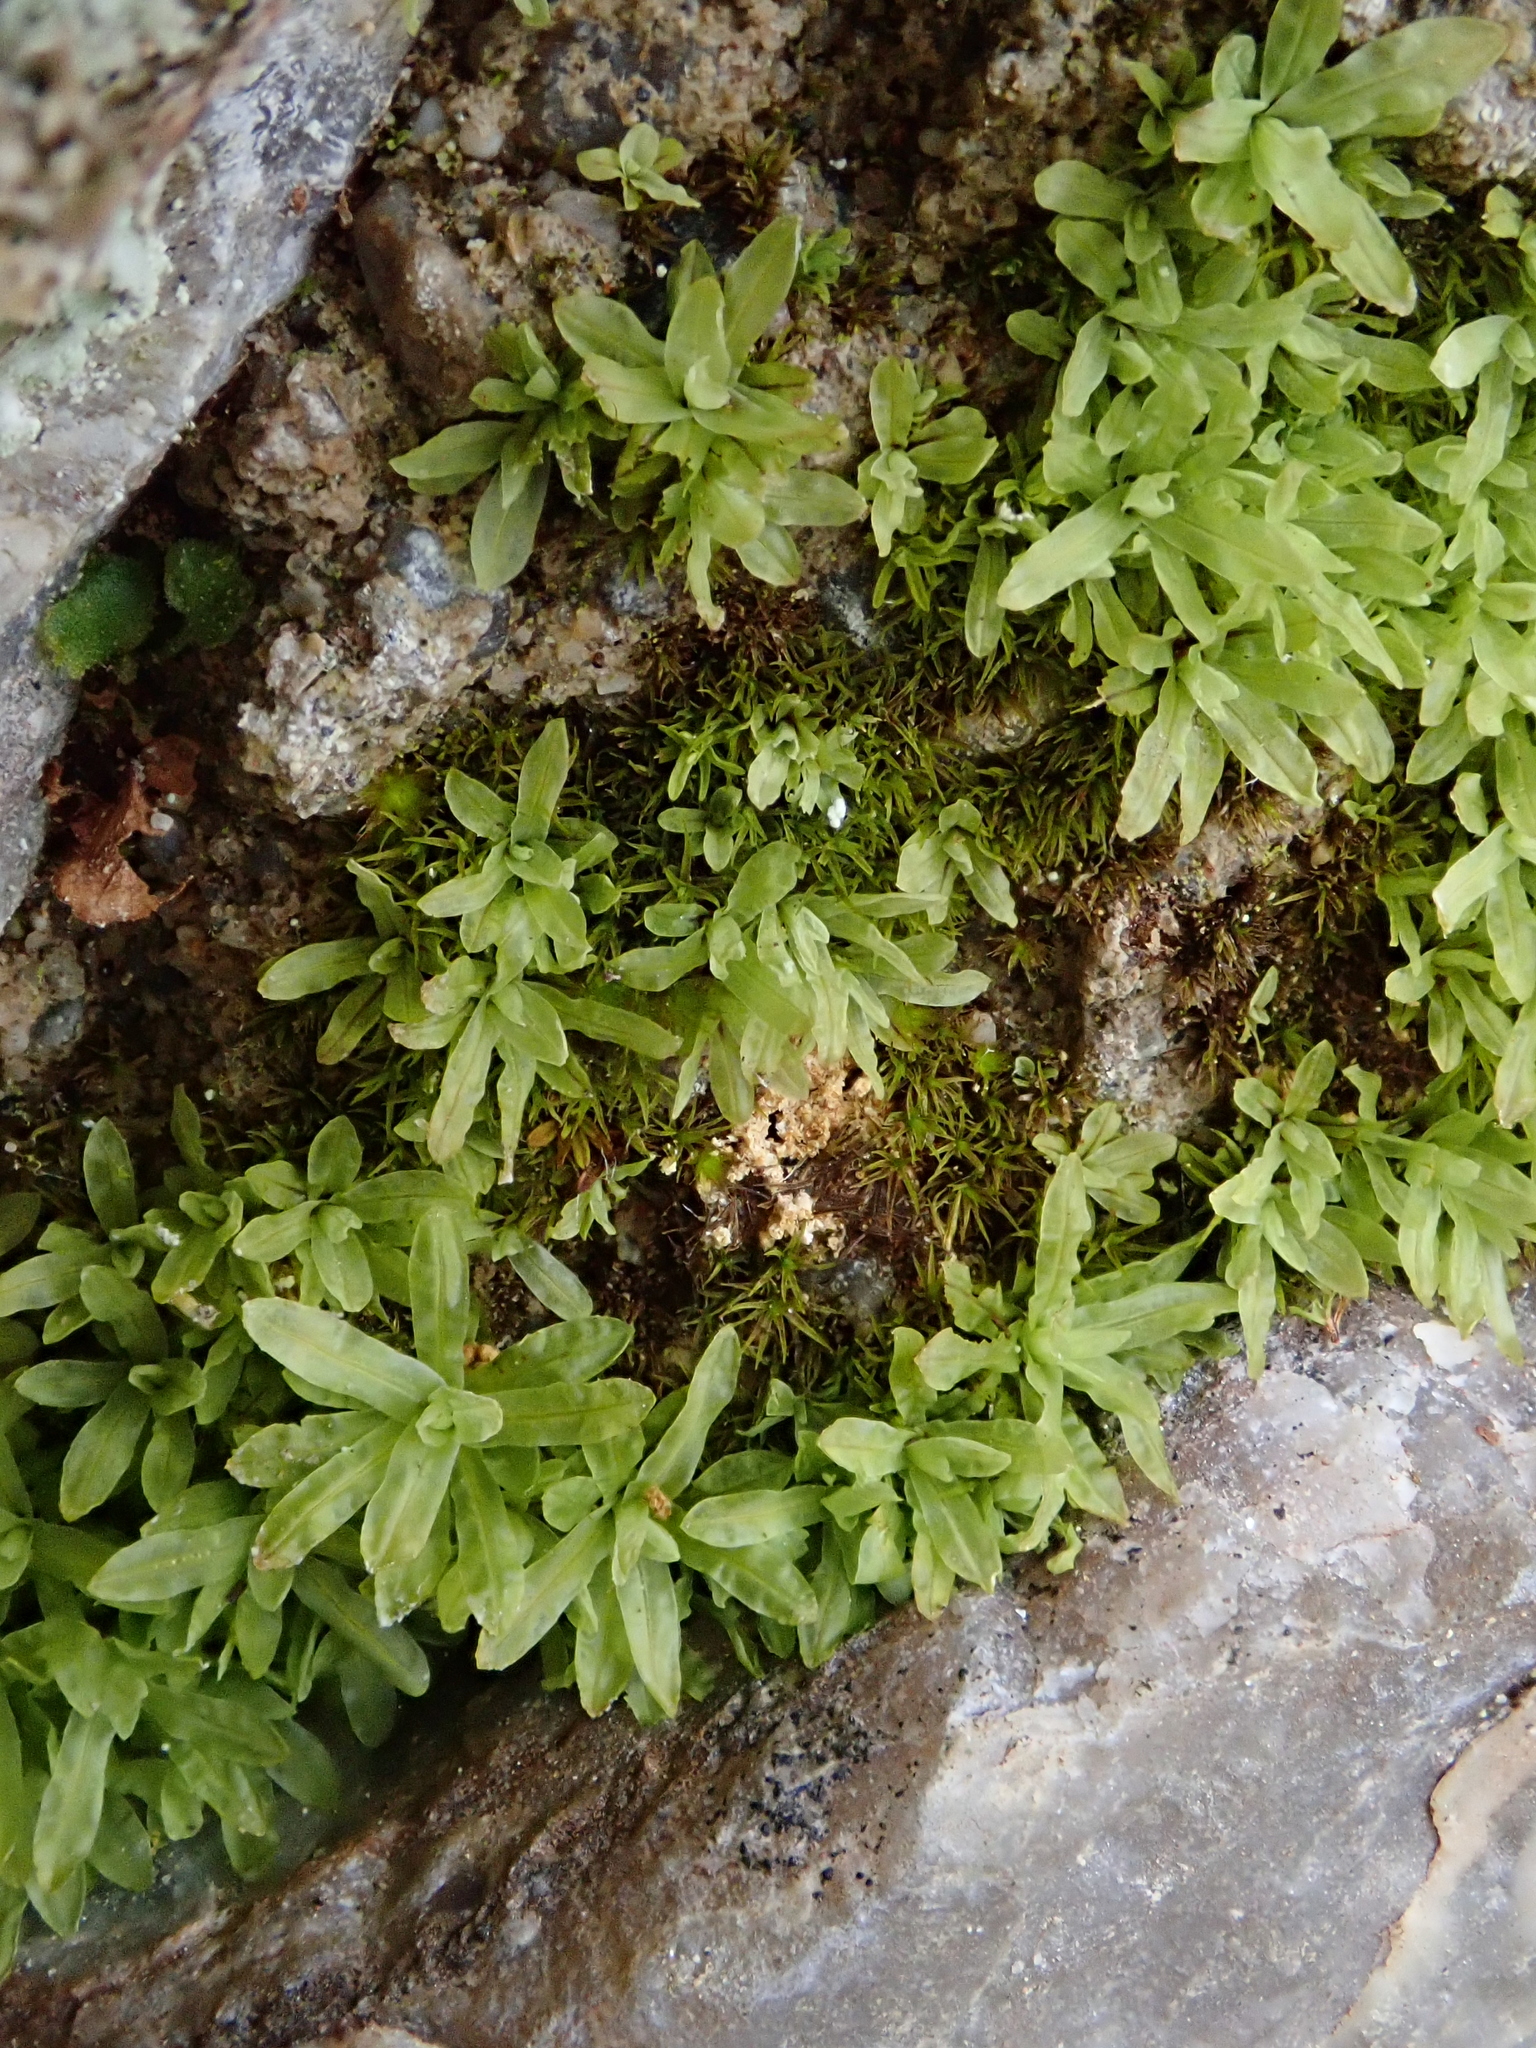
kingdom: Plantae
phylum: Bryophyta
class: Bryopsida
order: Encalyptales
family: Encalyptaceae
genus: Encalypta
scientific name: Encalypta streptocarpa
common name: Spiral extinguisher-moss
